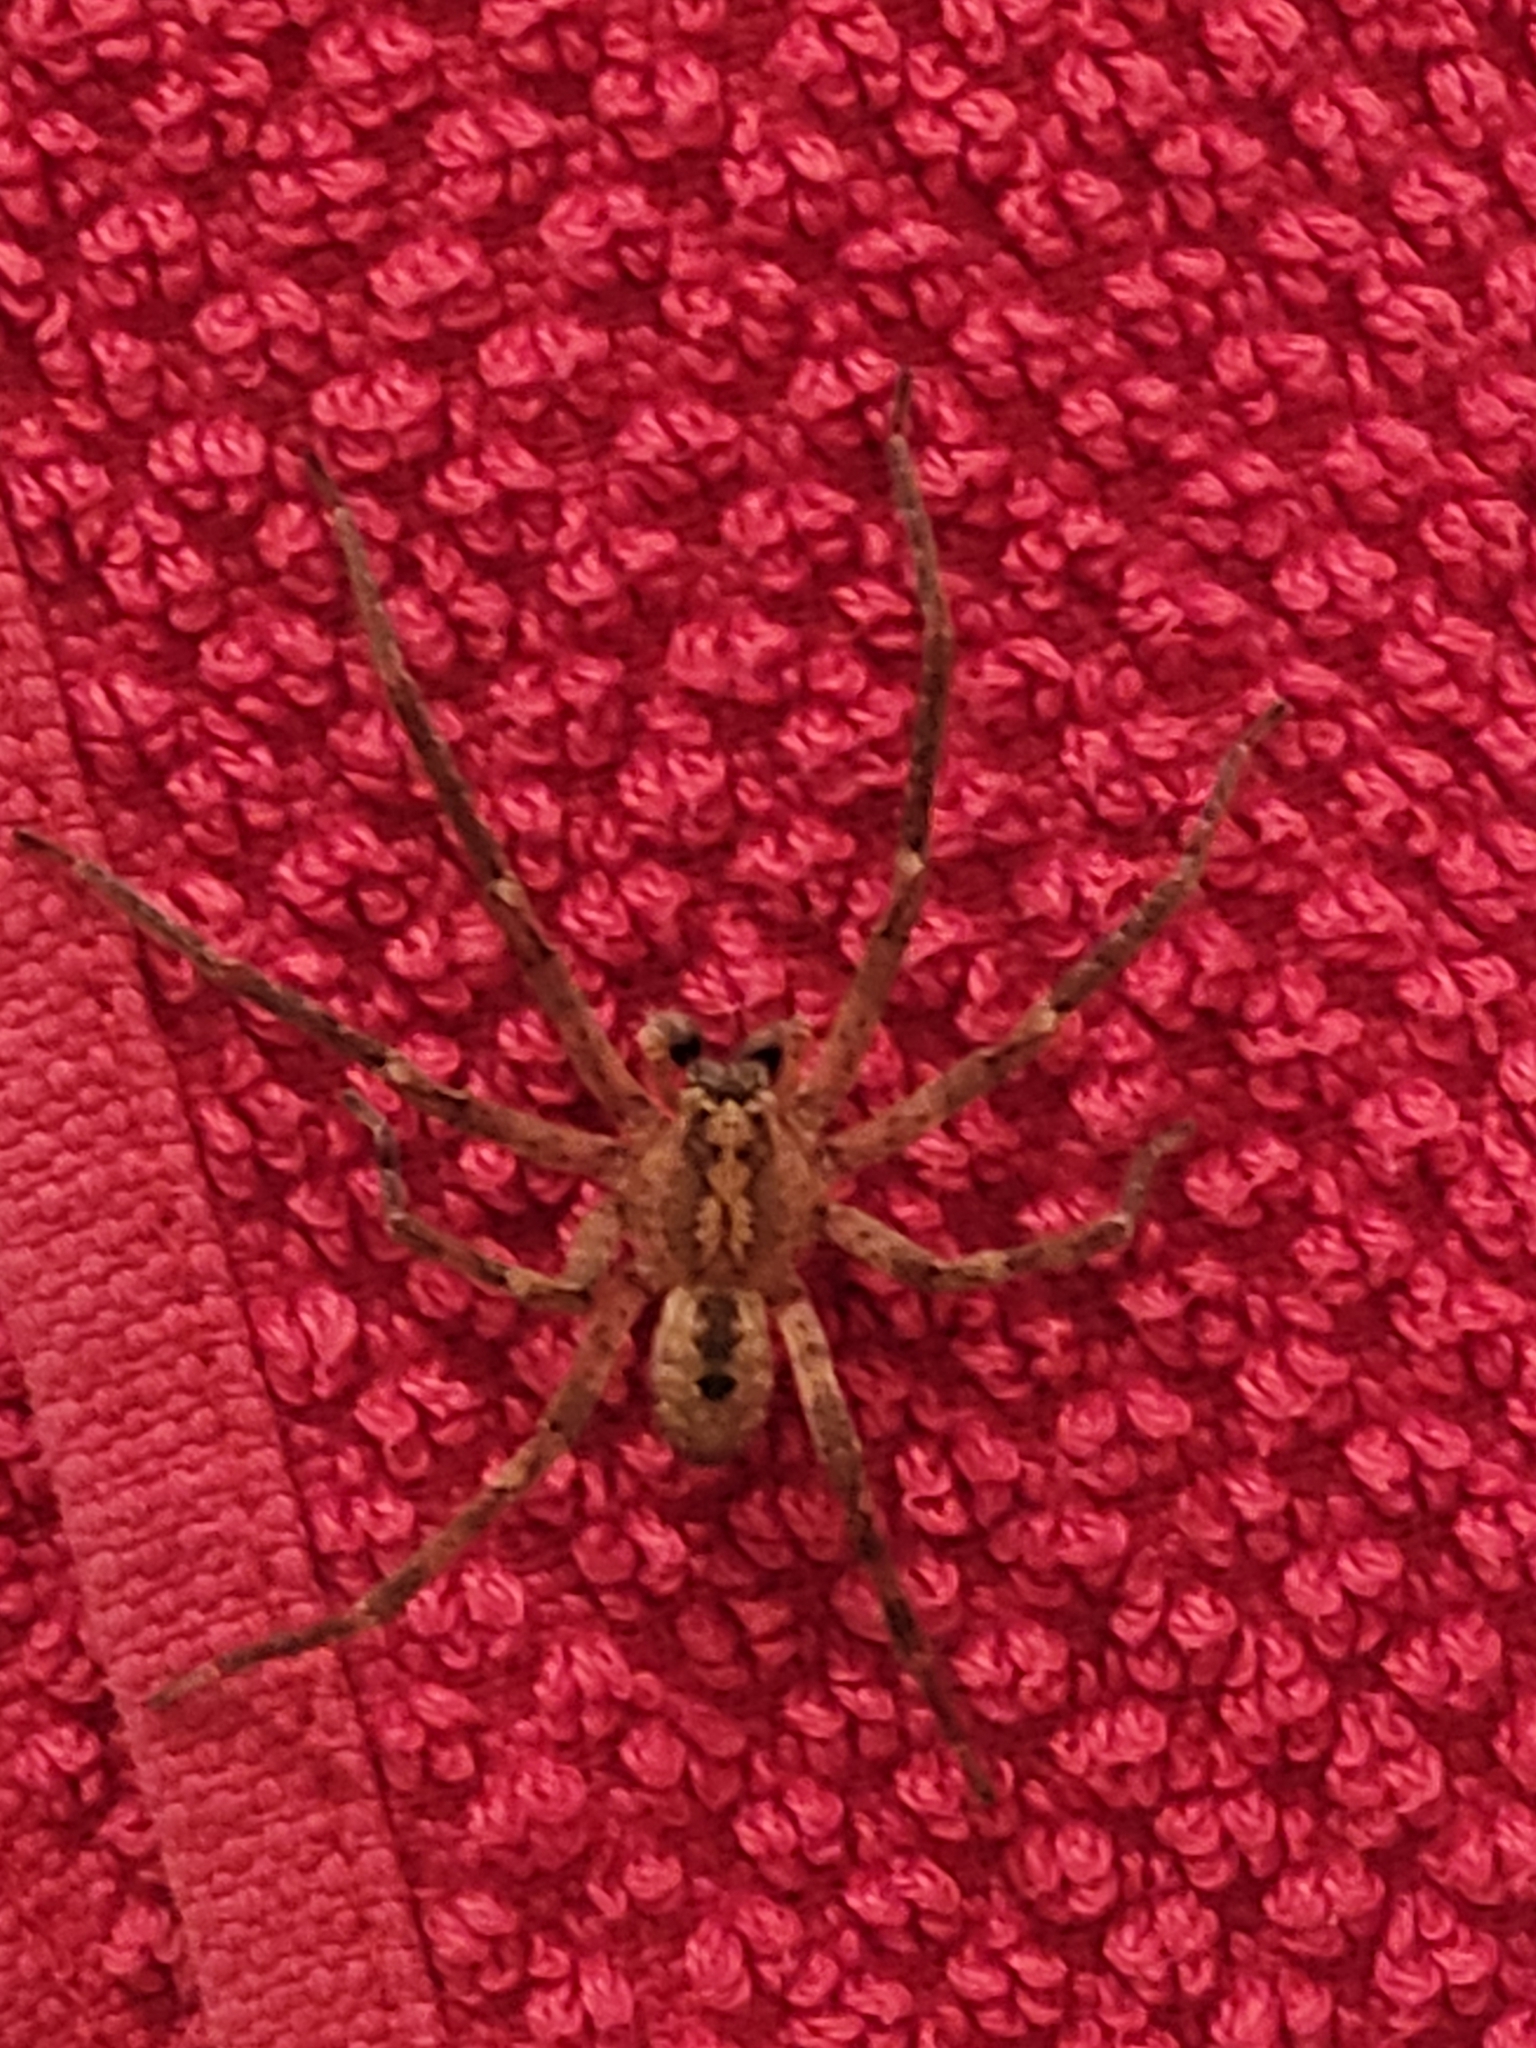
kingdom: Animalia
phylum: Arthropoda
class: Arachnida
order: Araneae
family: Zoropsidae
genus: Zoropsis
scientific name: Zoropsis spinimana
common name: Zoropsid spider
